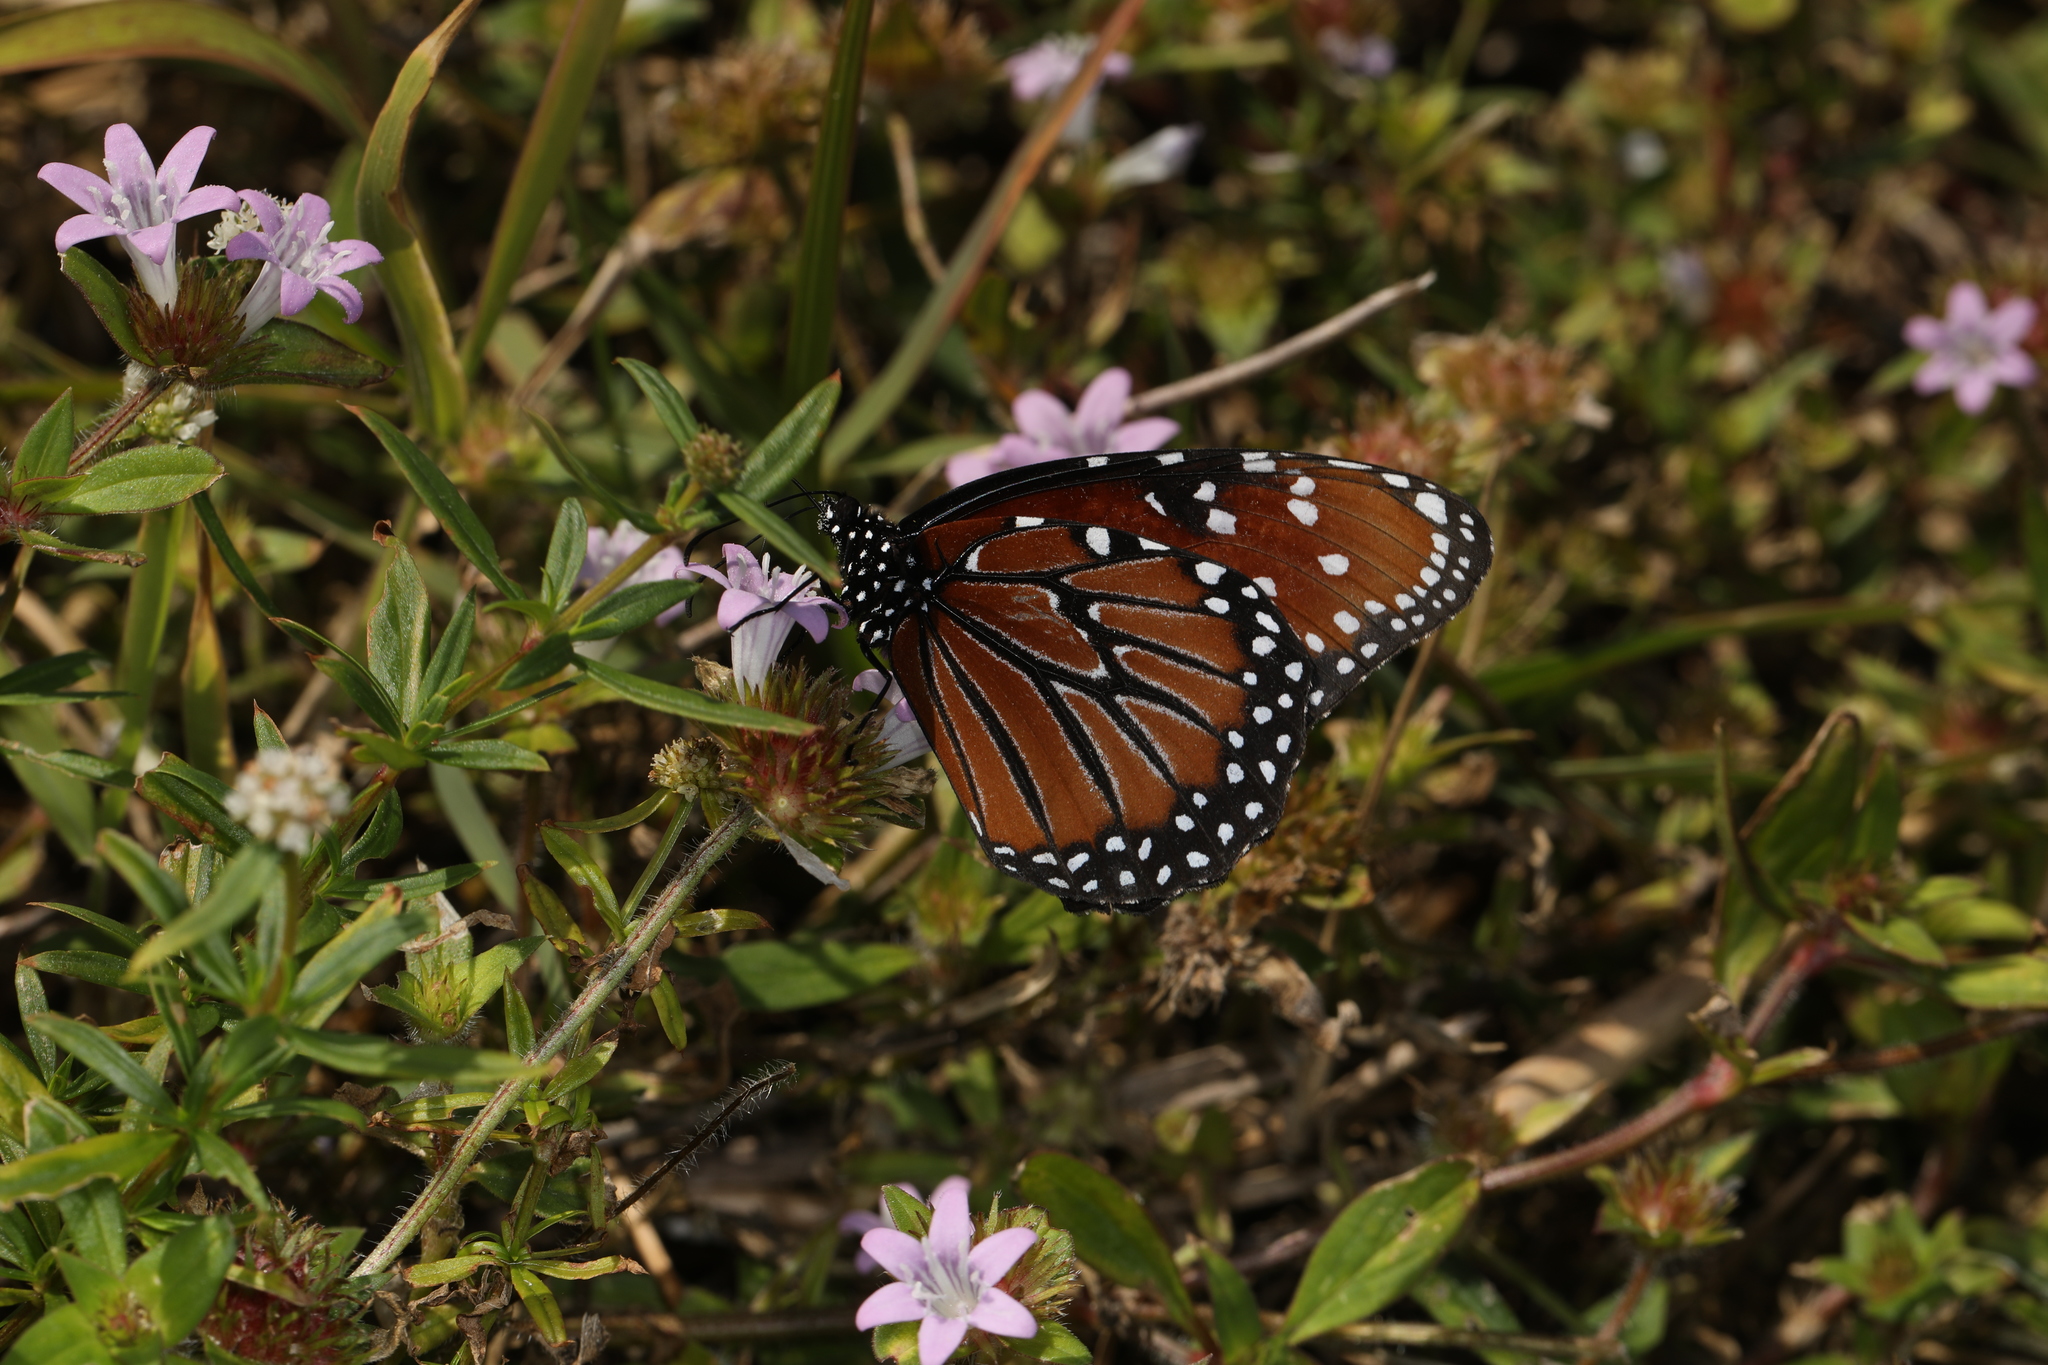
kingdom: Animalia
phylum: Arthropoda
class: Insecta
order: Lepidoptera
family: Nymphalidae
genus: Danaus
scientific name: Danaus gilippus
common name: Queen
